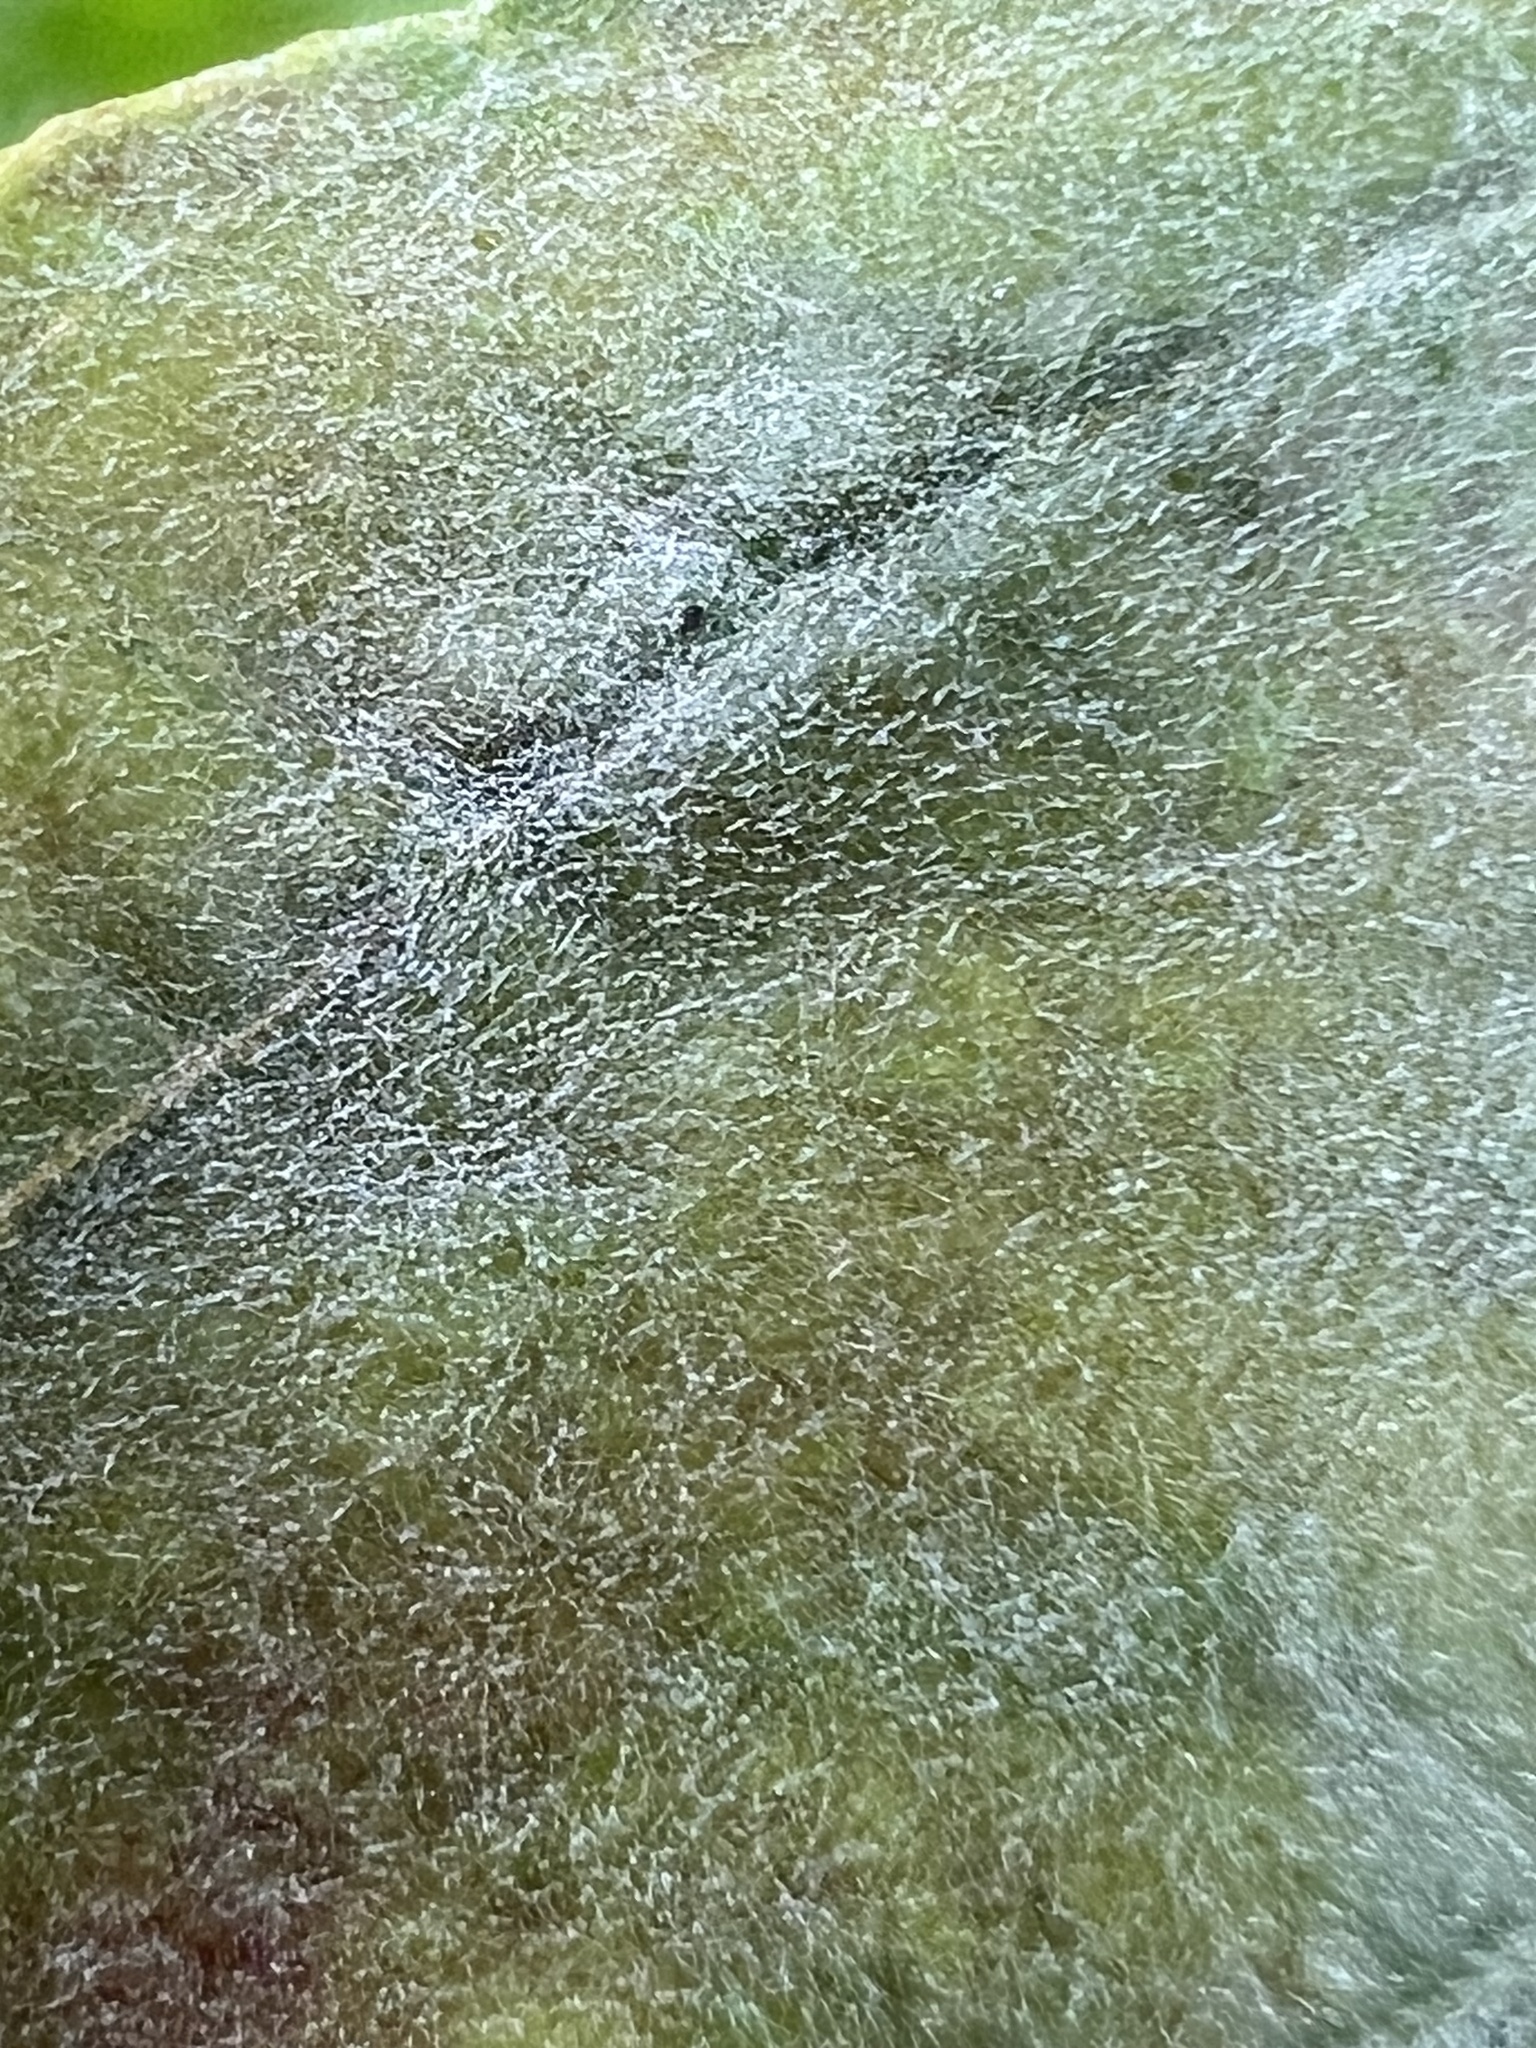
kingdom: Fungi
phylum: Ascomycota
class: Leotiomycetes
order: Helotiales
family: Erysiphaceae
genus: Erysiphe
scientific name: Erysiphe
